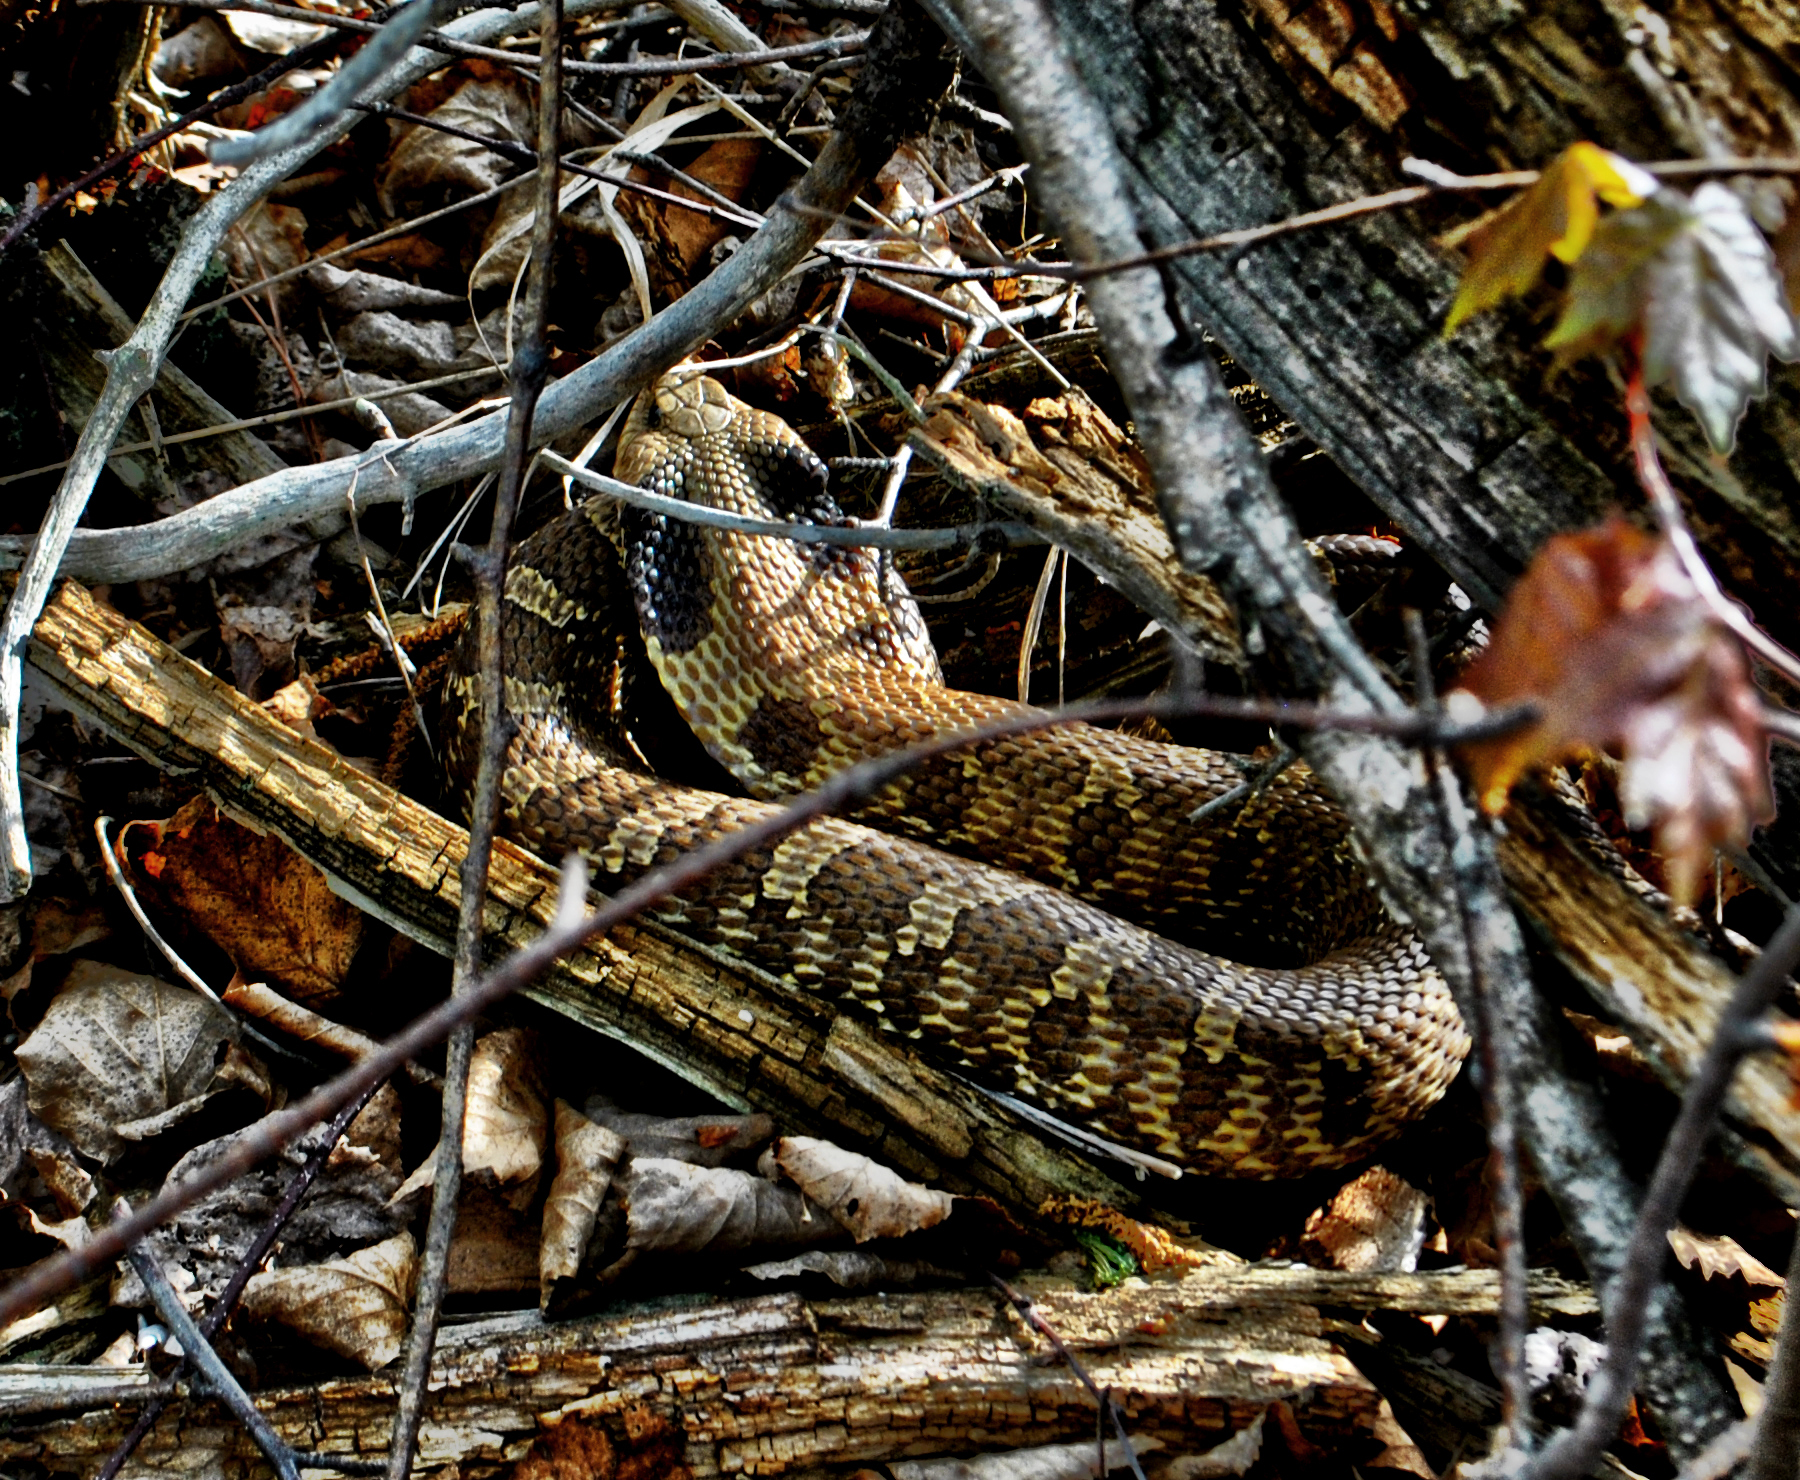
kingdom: Animalia
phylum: Chordata
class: Squamata
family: Colubridae
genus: Heterodon
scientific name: Heterodon platirhinos
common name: Eastern hognose snake
